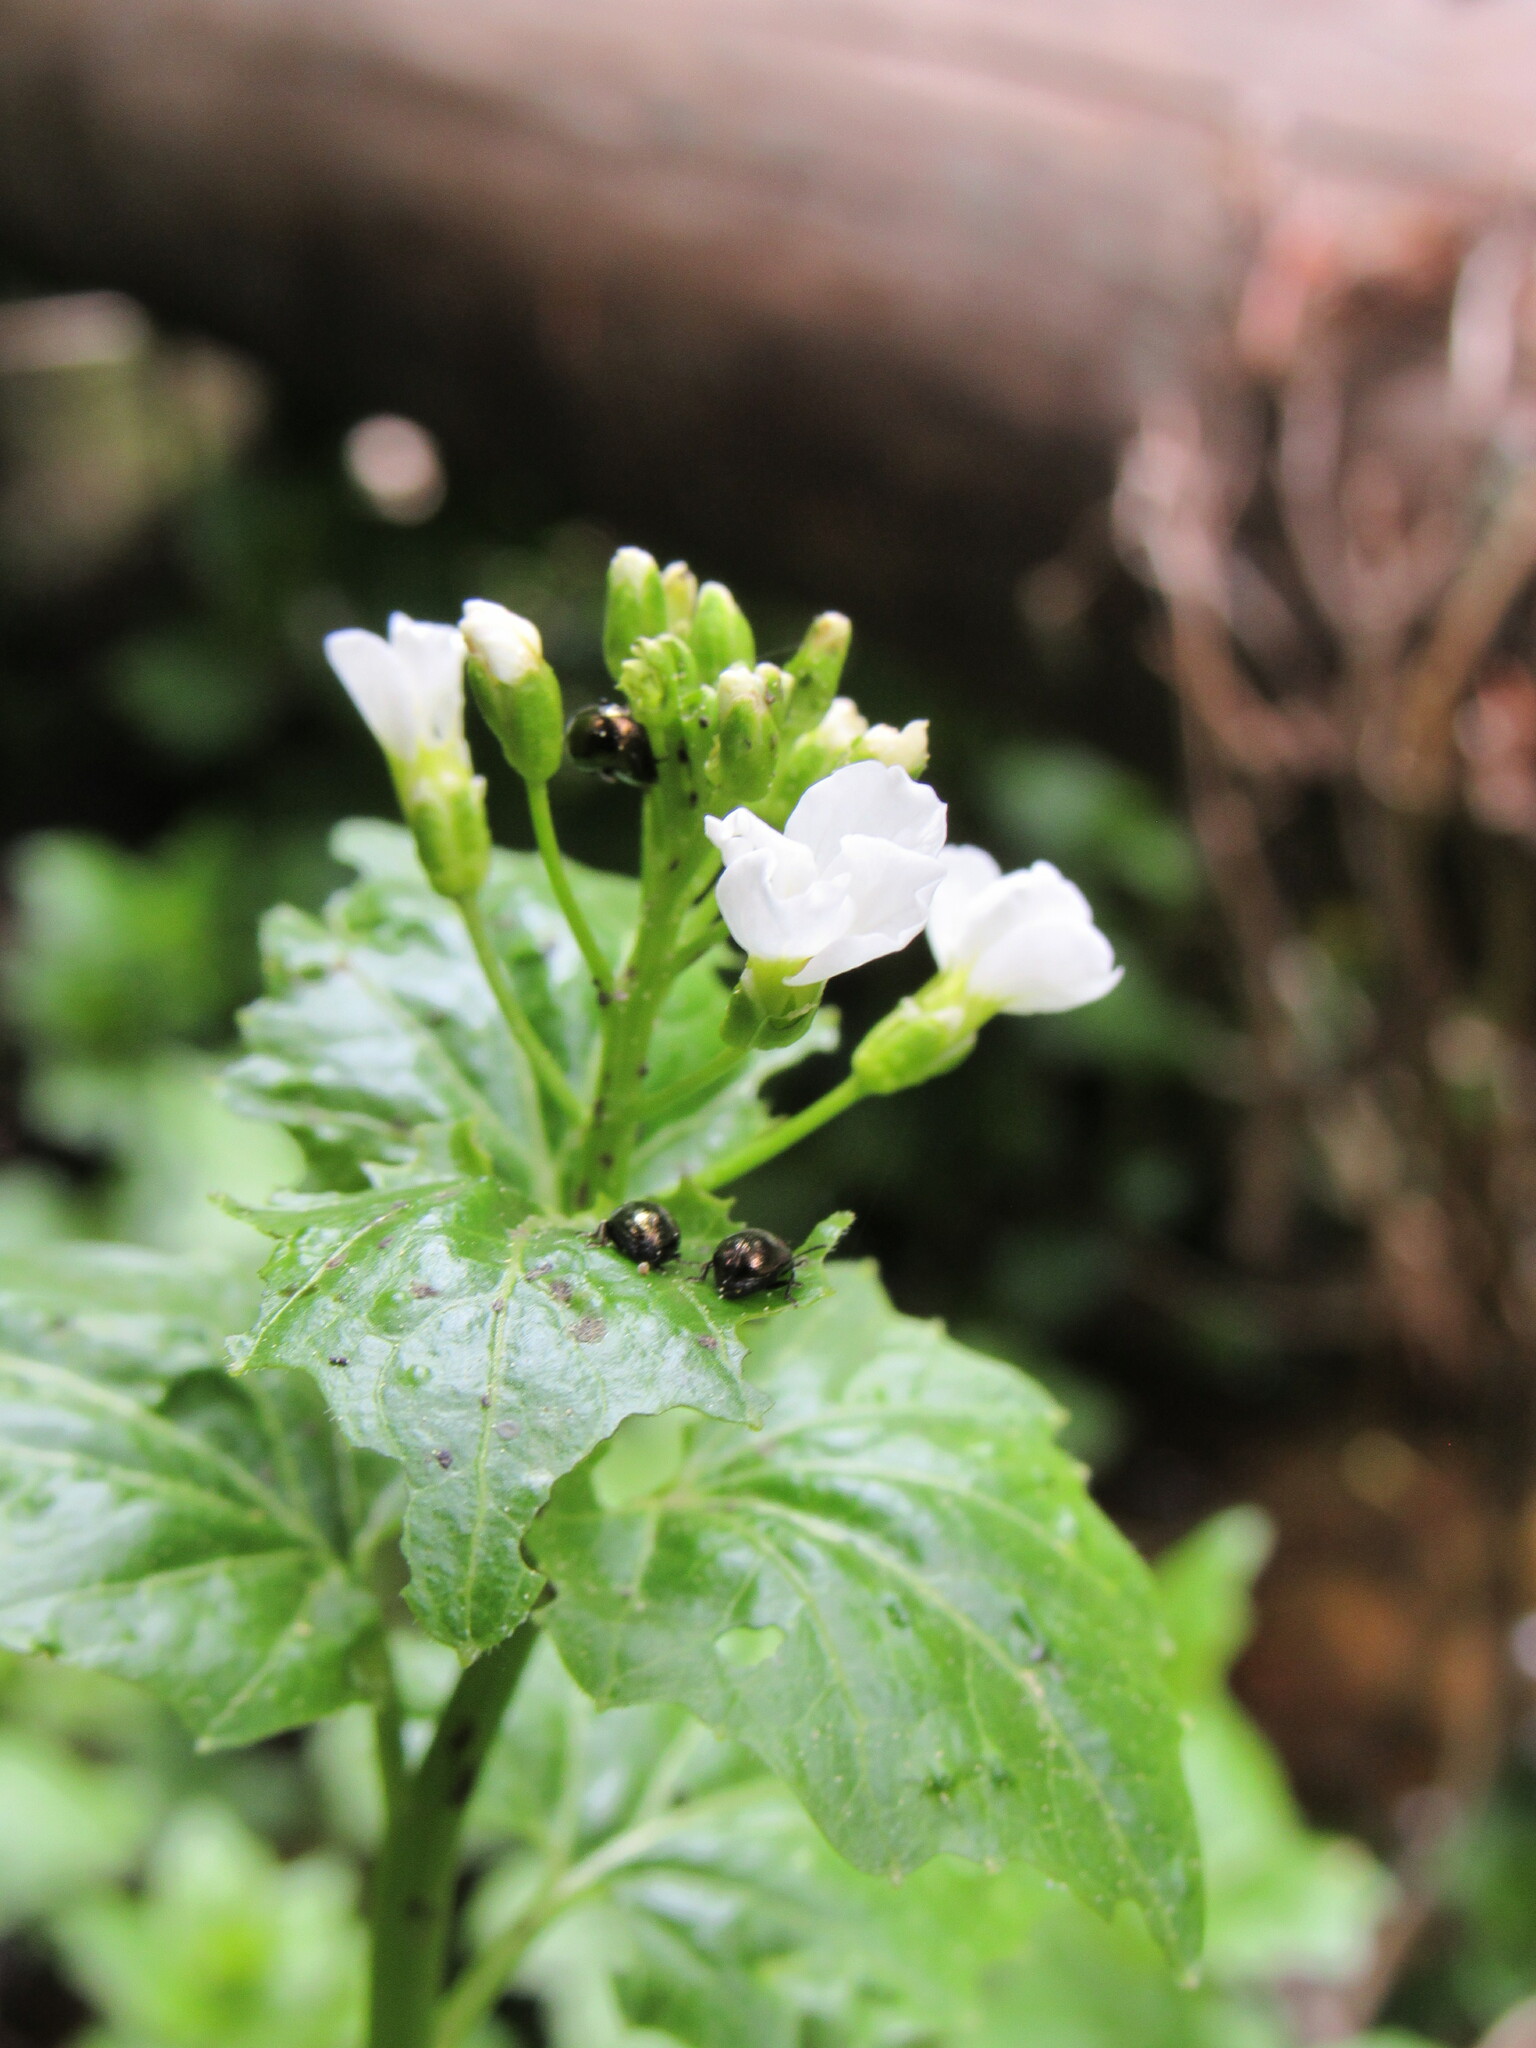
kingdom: Plantae
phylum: Tracheophyta
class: Magnoliopsida
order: Brassicales
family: Brassicaceae
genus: Cardamine
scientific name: Cardamine cordifolia
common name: Heart-leaf bittercress
